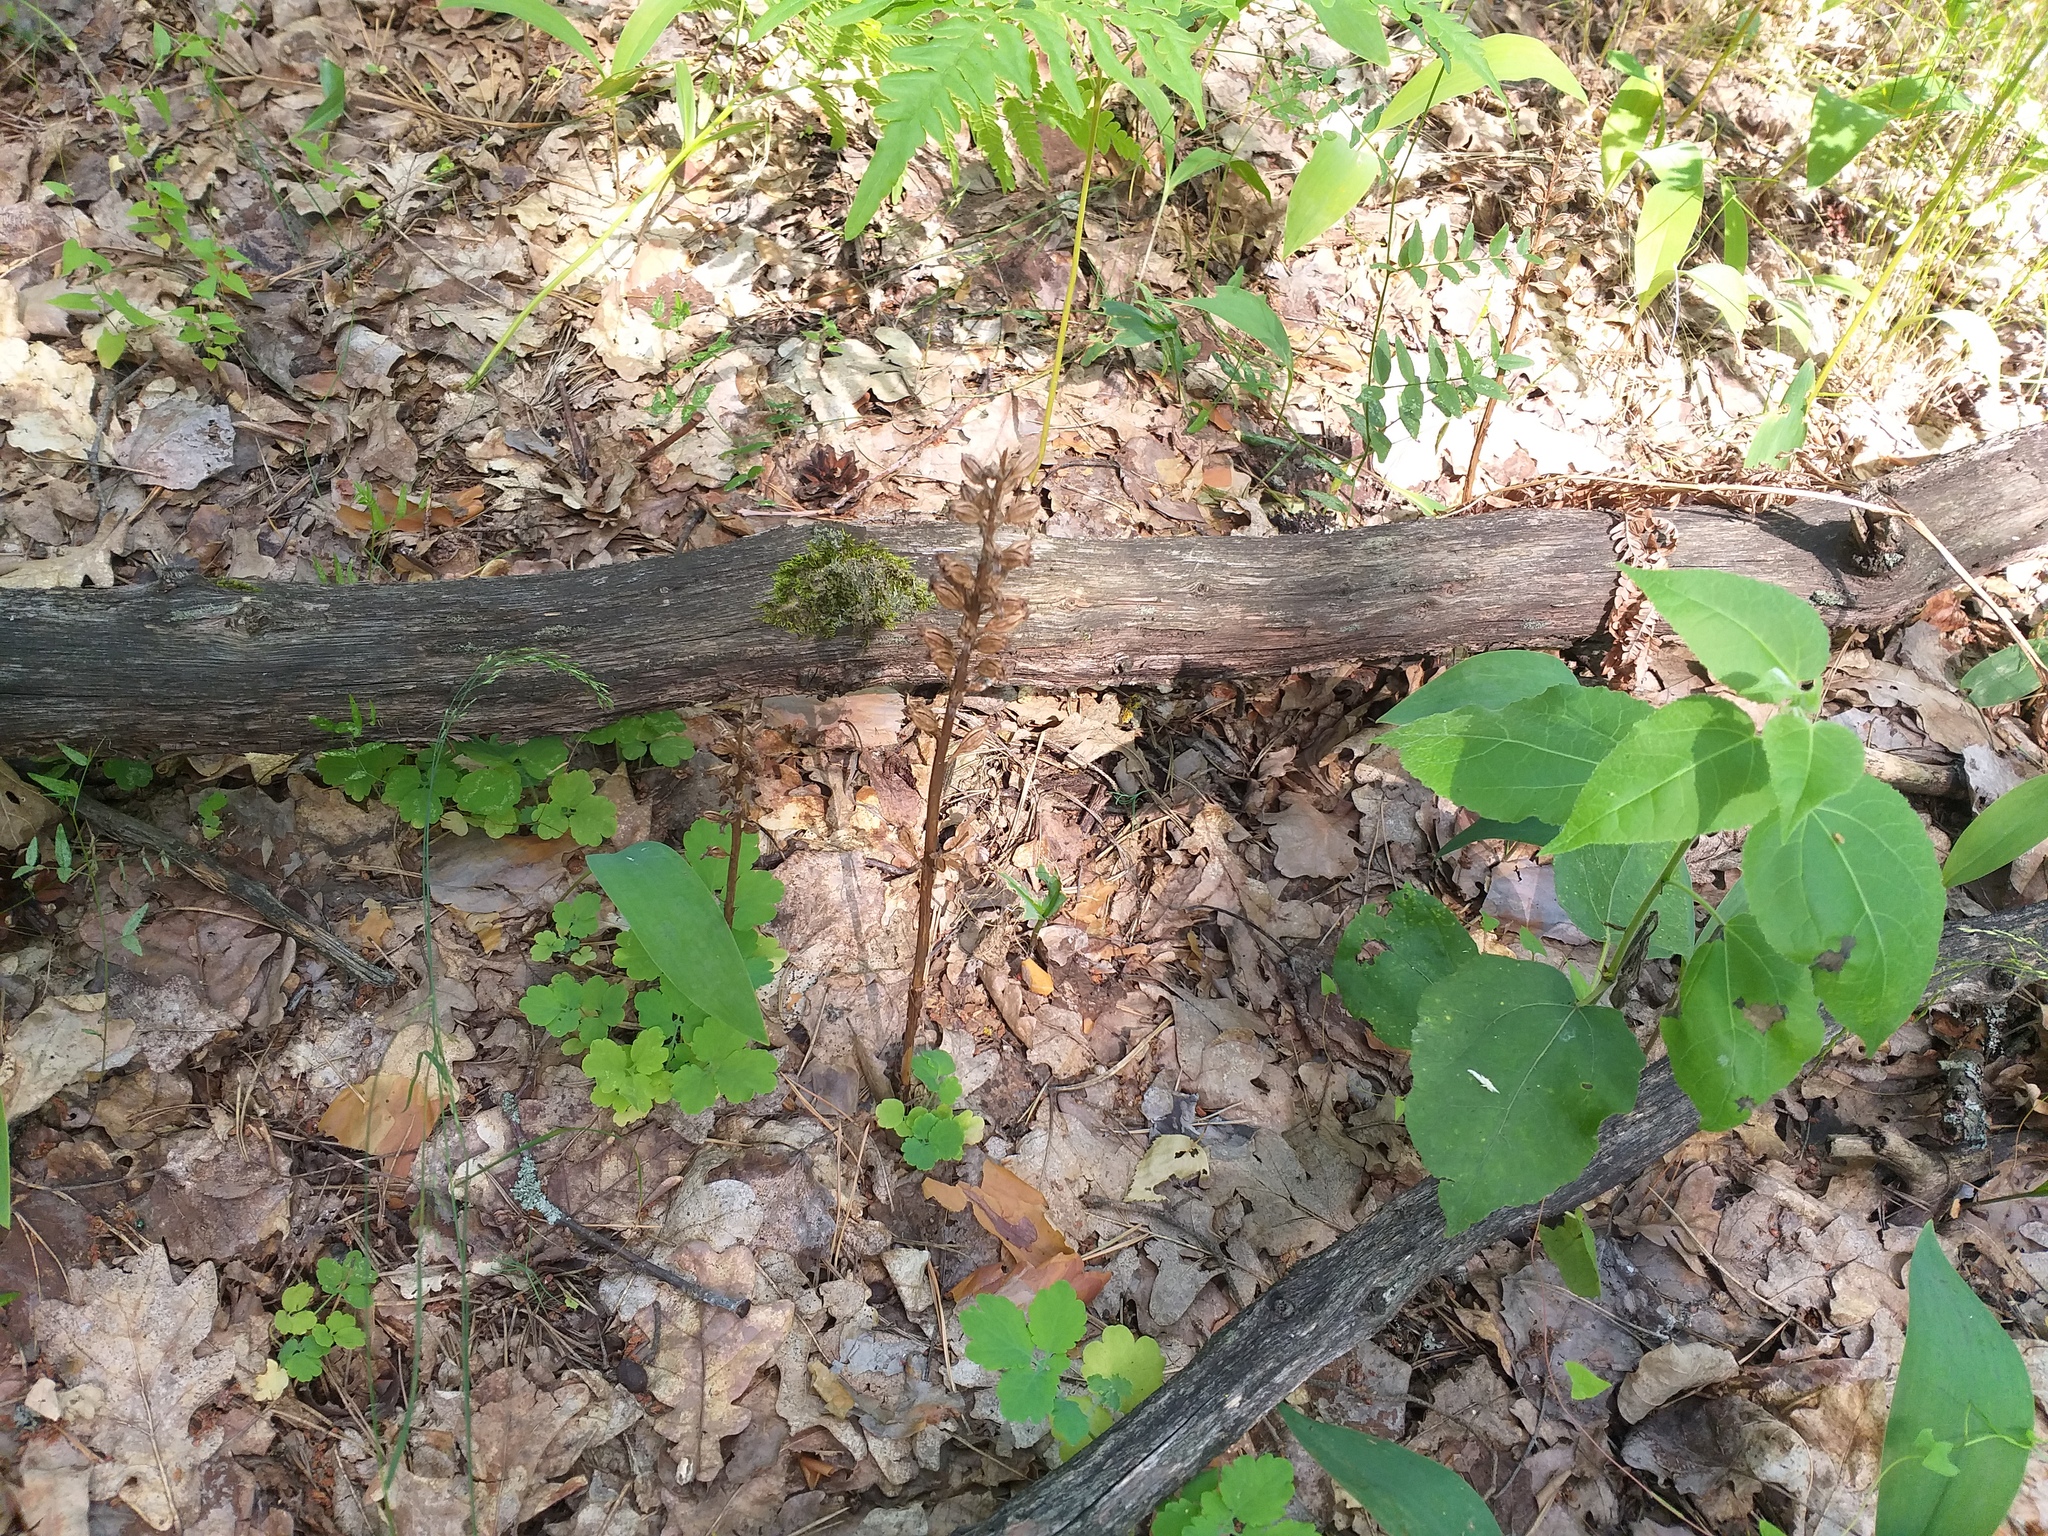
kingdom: Plantae
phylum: Tracheophyta
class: Liliopsida
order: Asparagales
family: Orchidaceae
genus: Neottia
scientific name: Neottia nidus-avis
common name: Bird's-nest orchid
